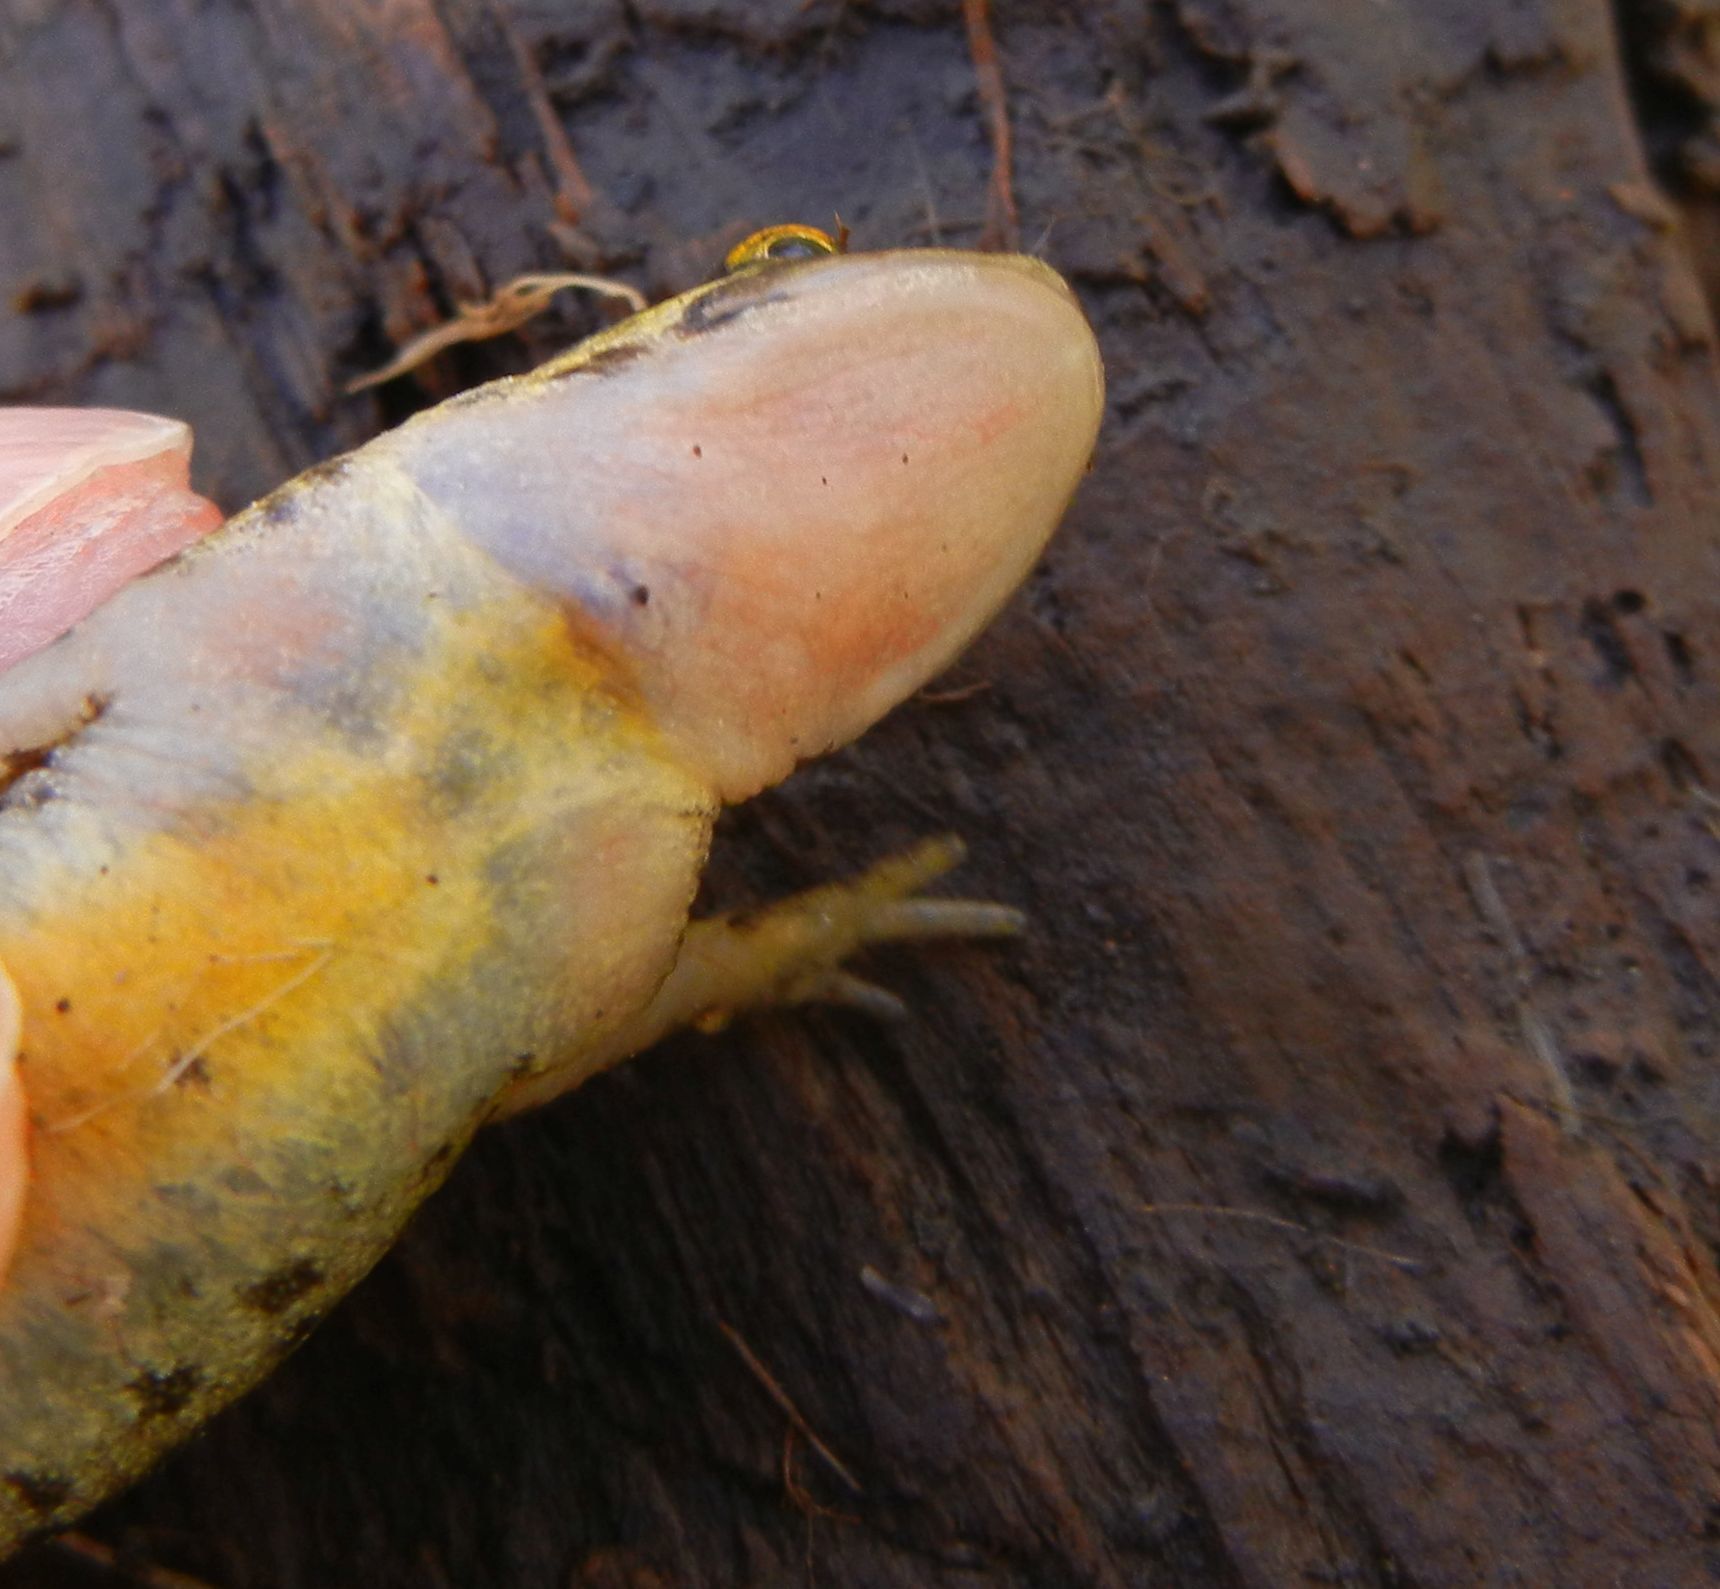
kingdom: Animalia
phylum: Chordata
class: Amphibia
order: Caudata
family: Salamandridae
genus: Lissotriton
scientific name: Lissotriton helveticus
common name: Palmate newt
